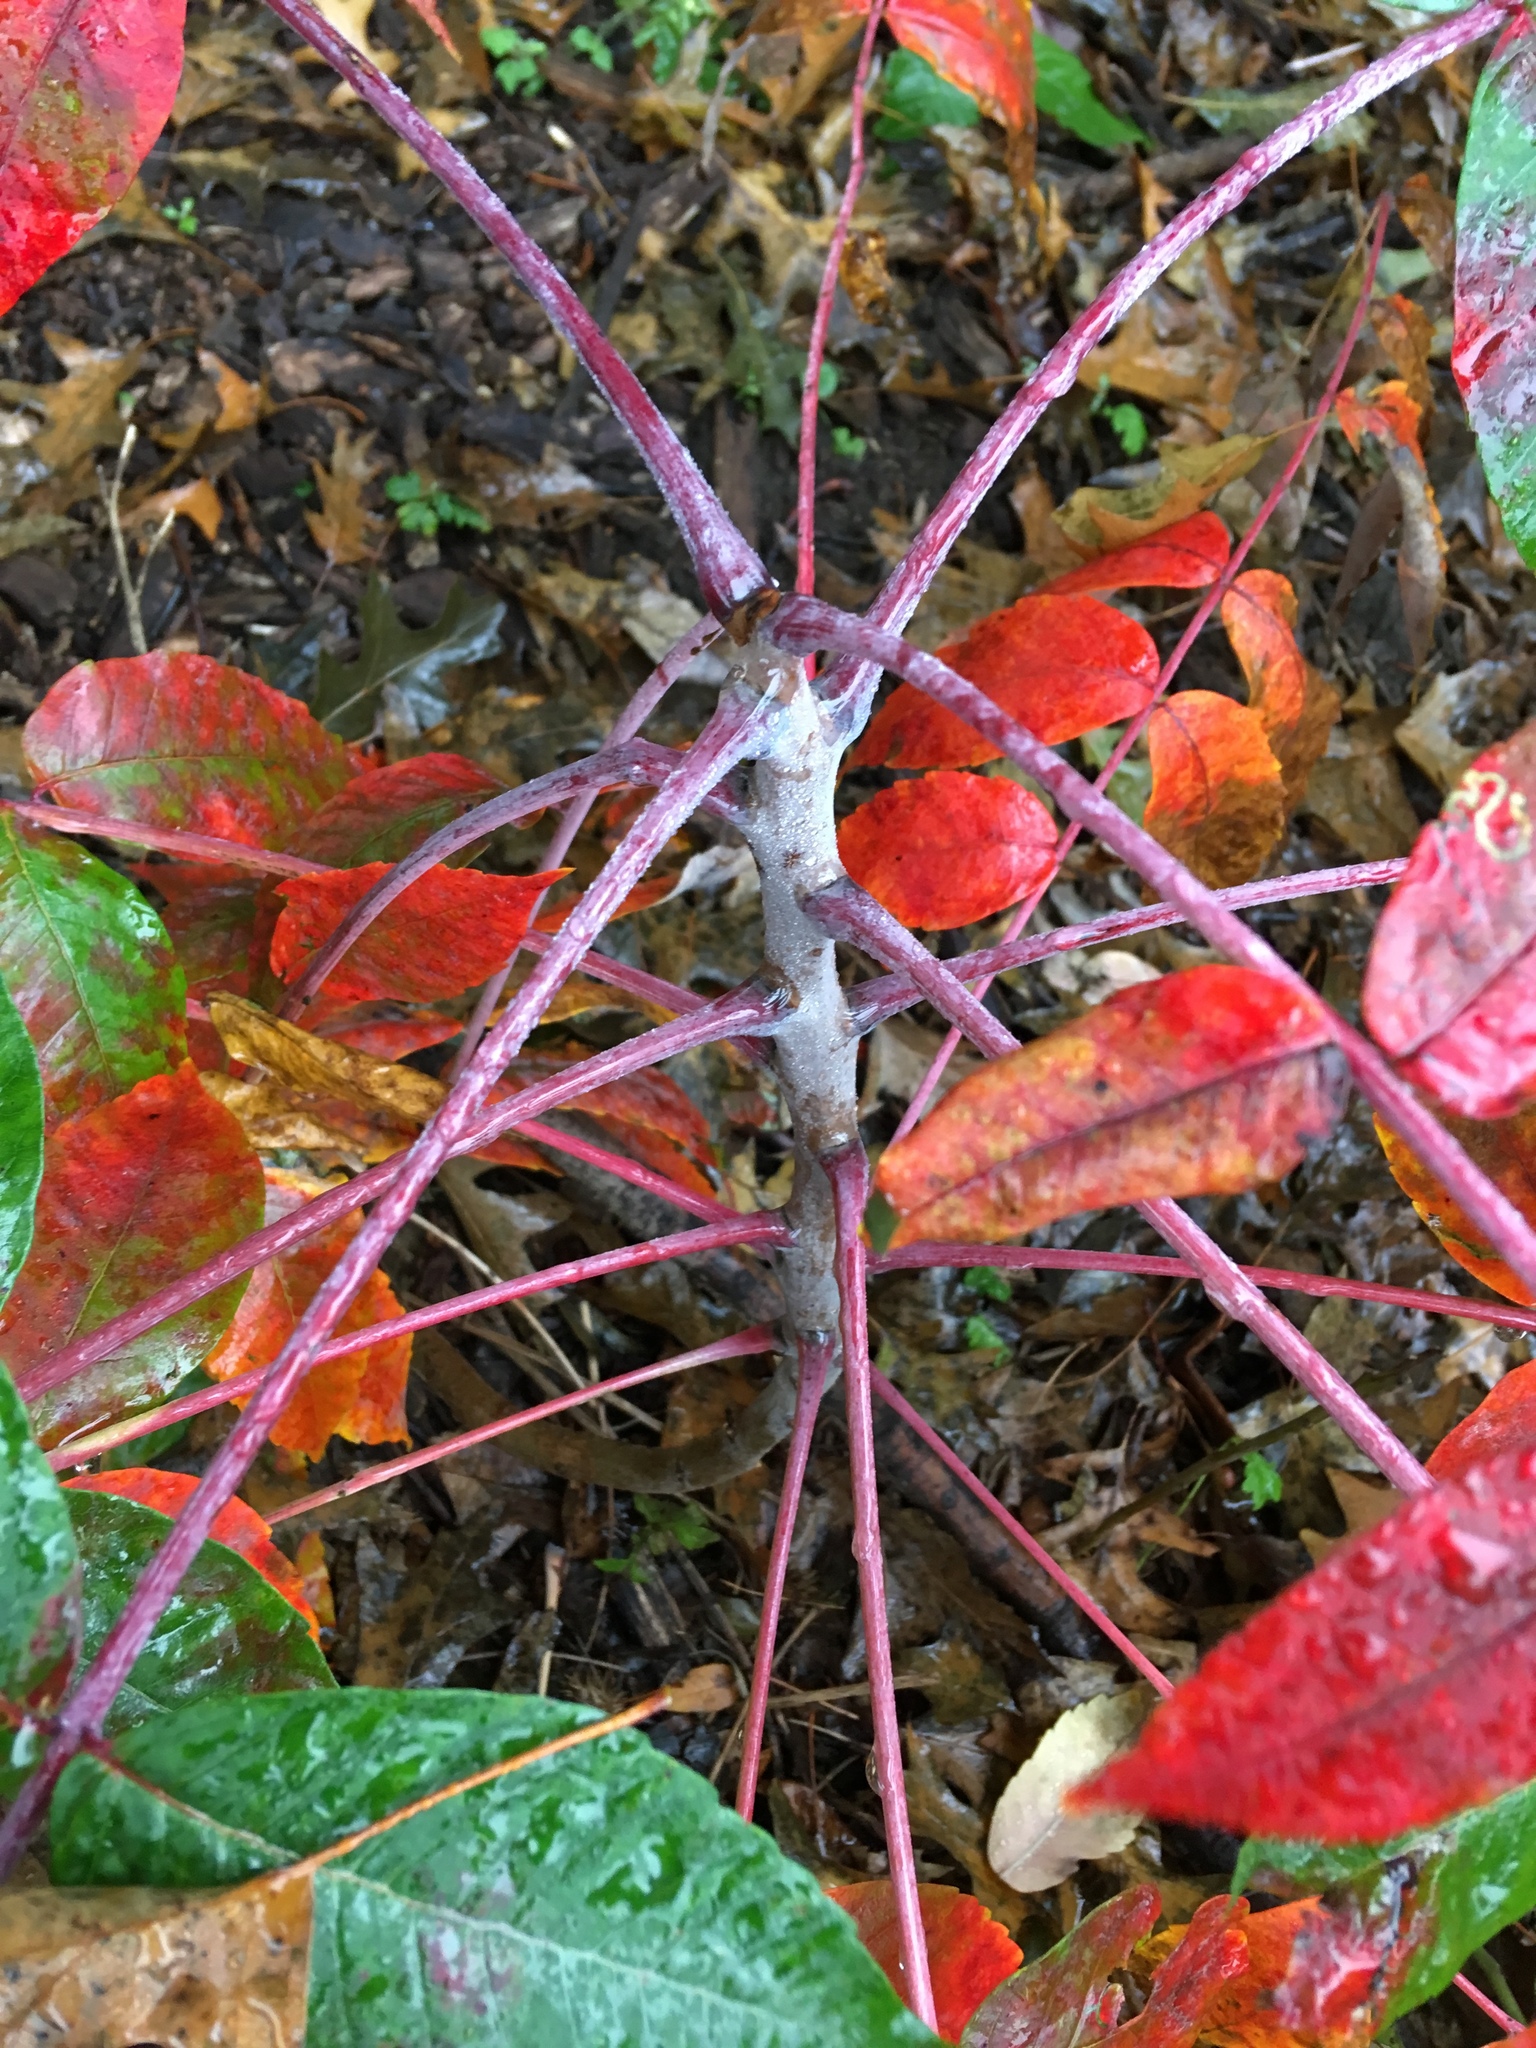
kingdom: Plantae
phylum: Tracheophyta
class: Magnoliopsida
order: Sapindales
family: Anacardiaceae
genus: Rhus
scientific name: Rhus glabra
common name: Scarlet sumac
